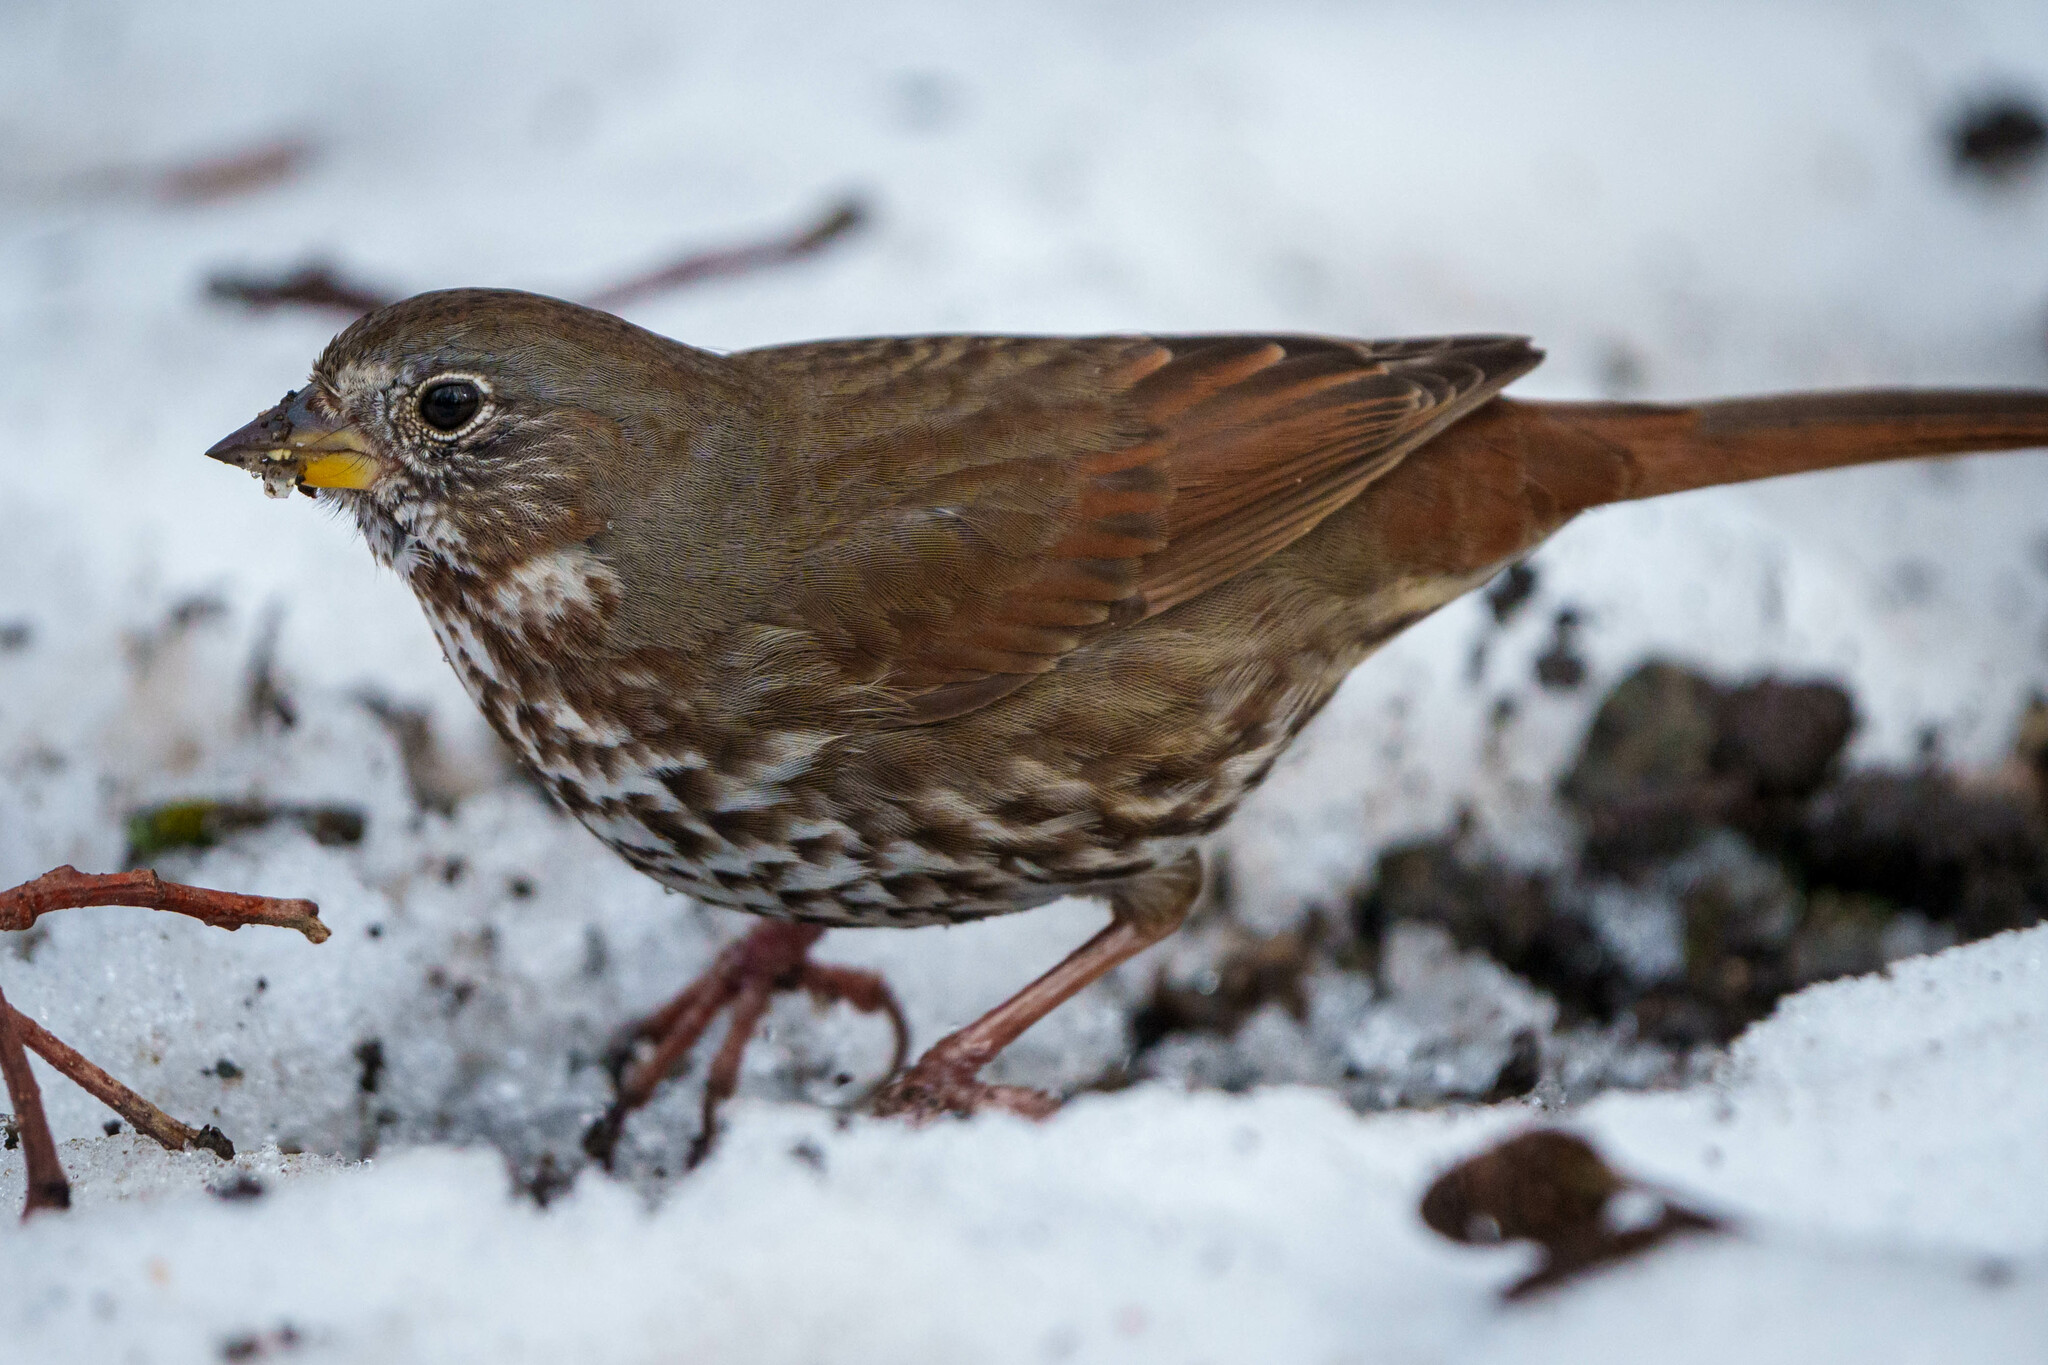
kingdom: Animalia
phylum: Chordata
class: Aves
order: Passeriformes
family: Passerellidae
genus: Passerella
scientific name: Passerella iliaca
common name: Fox sparrow
